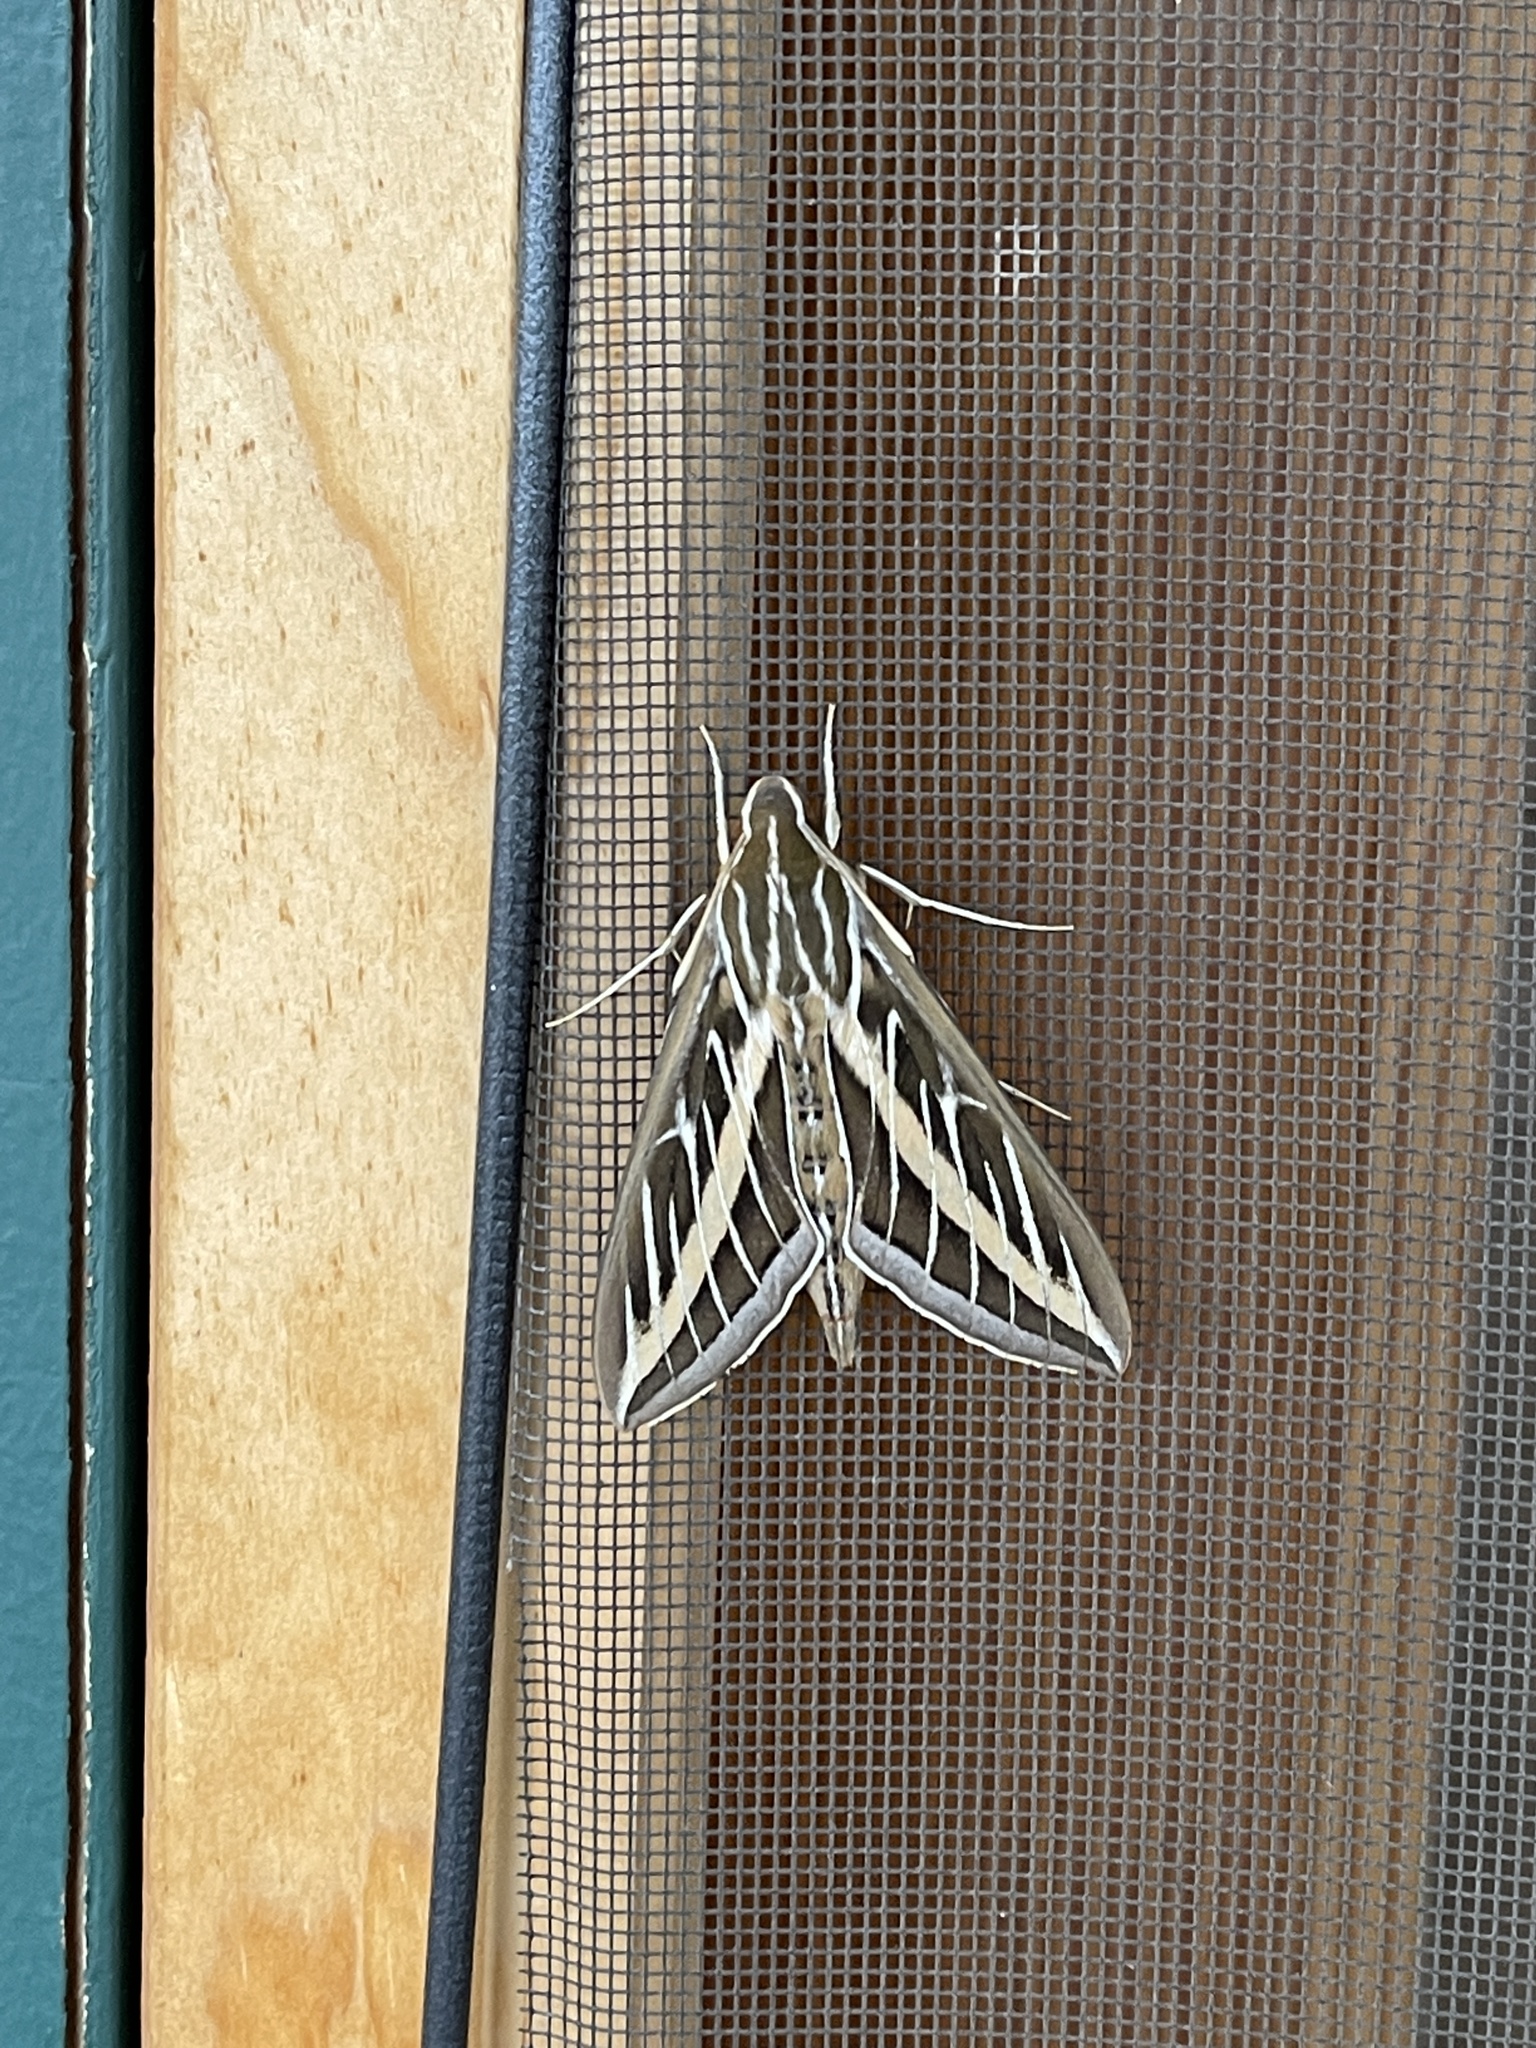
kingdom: Animalia
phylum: Arthropoda
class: Insecta
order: Lepidoptera
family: Sphingidae
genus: Hyles
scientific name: Hyles lineata
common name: White-lined sphinx
